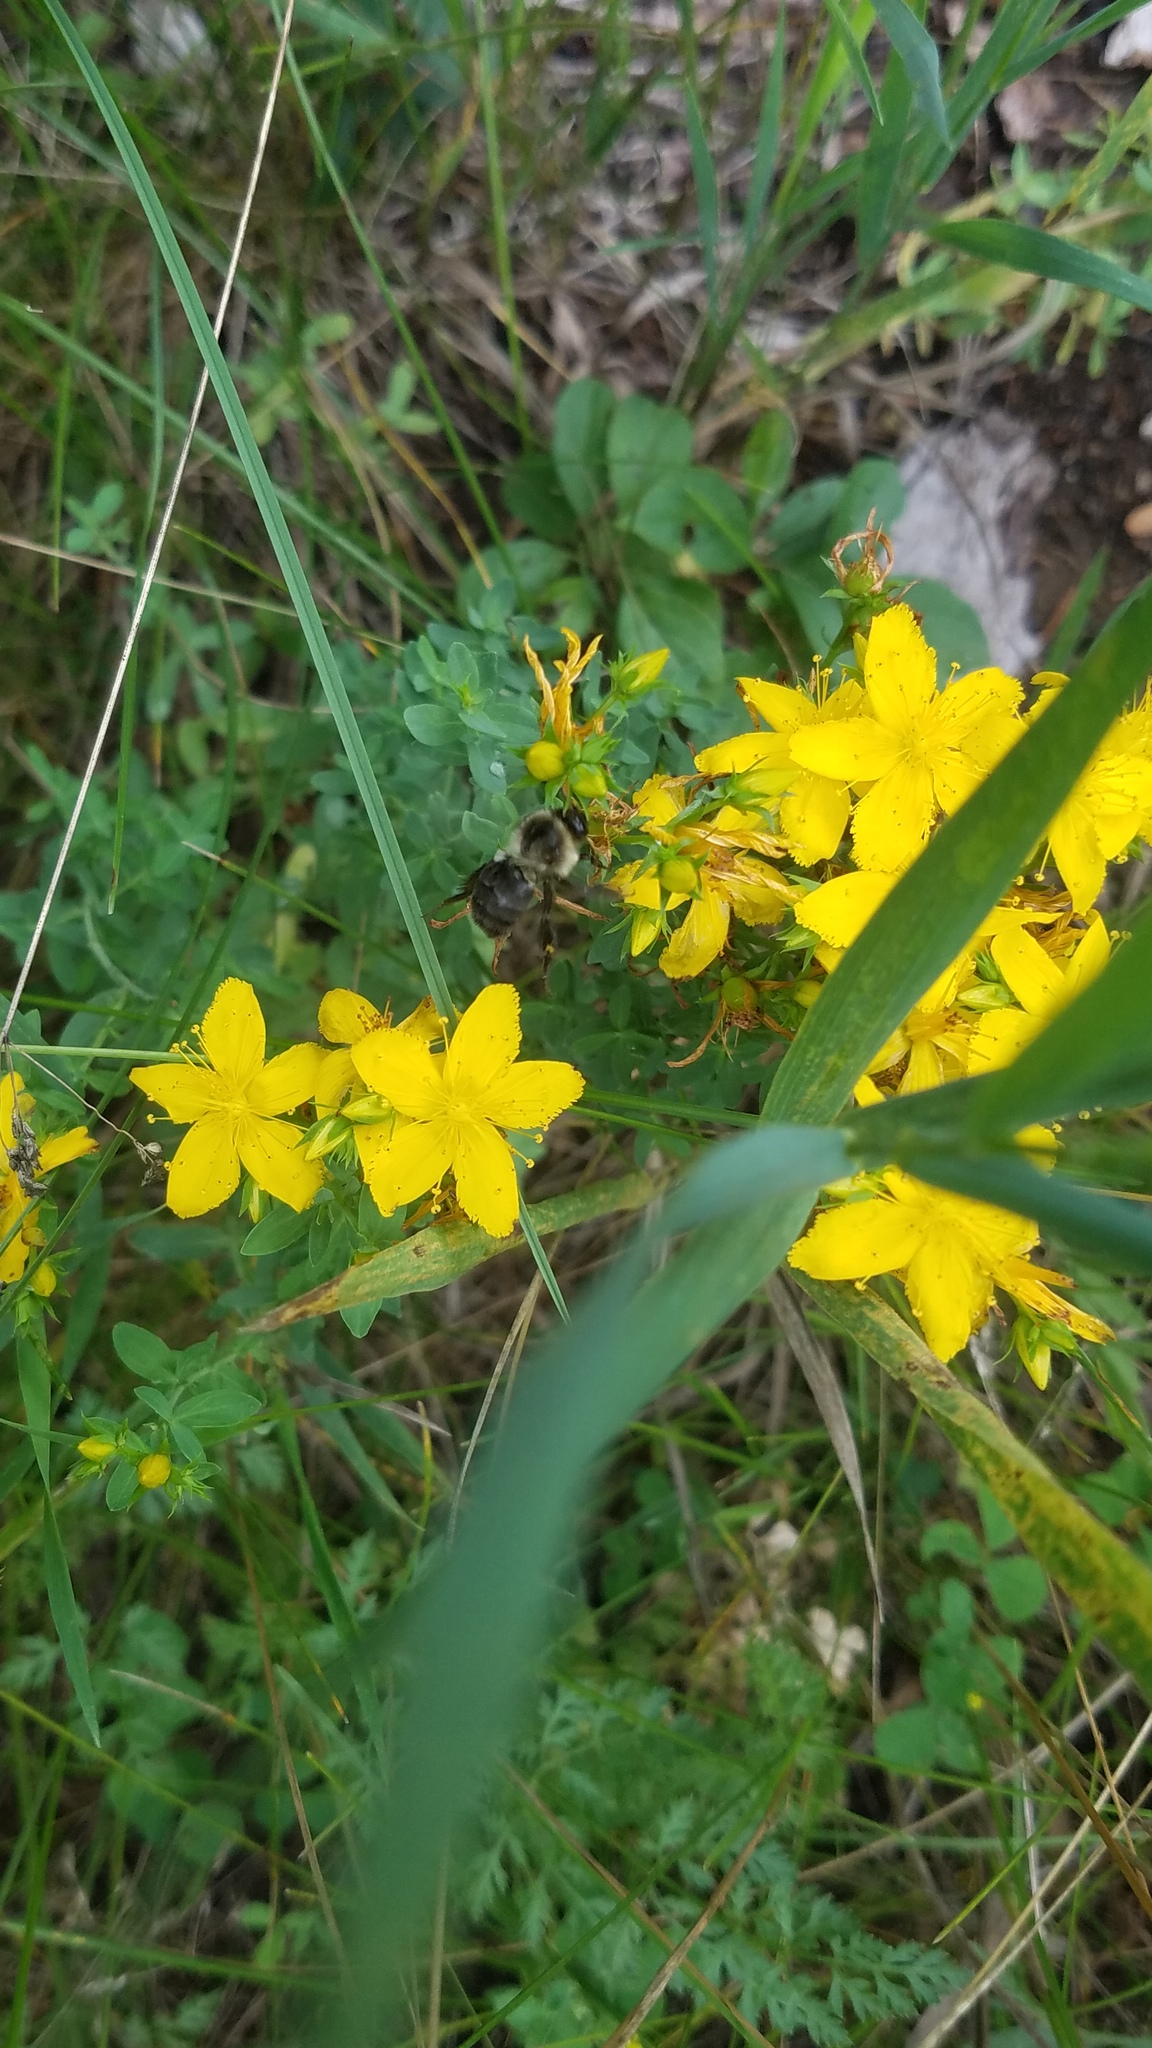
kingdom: Animalia
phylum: Arthropoda
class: Insecta
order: Hymenoptera
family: Apidae
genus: Bombus
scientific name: Bombus impatiens
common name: Common eastern bumble bee
